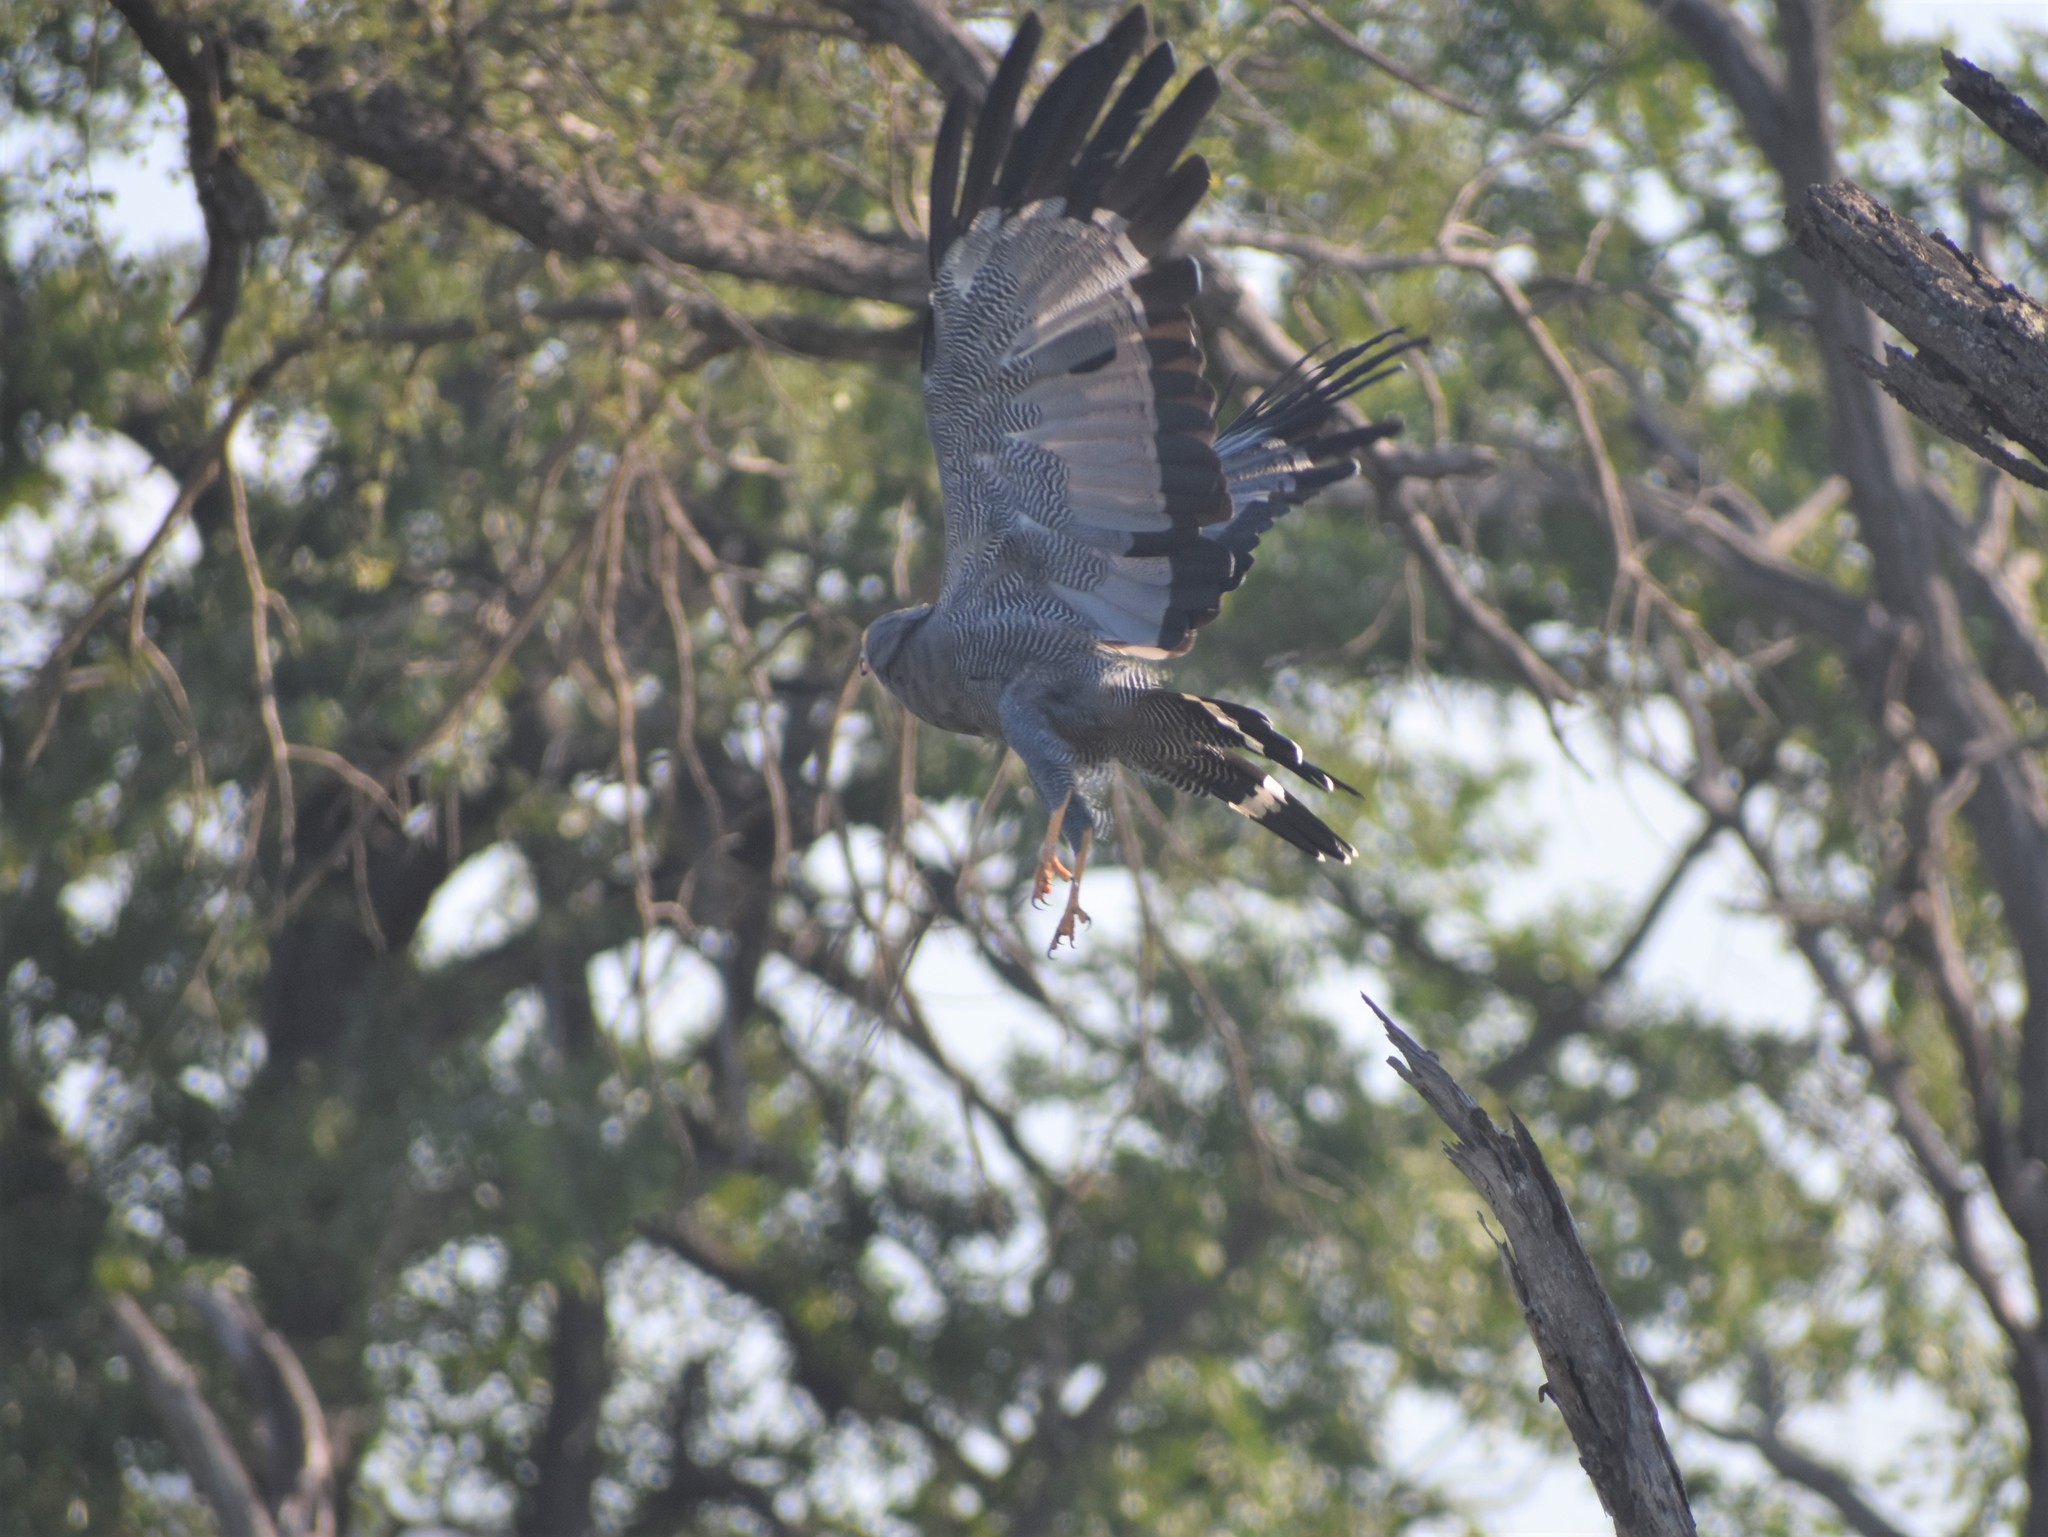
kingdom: Animalia
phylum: Chordata
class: Aves
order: Accipitriformes
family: Accipitridae
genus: Polyboroides
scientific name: Polyboroides typus
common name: African harrier-hawk
